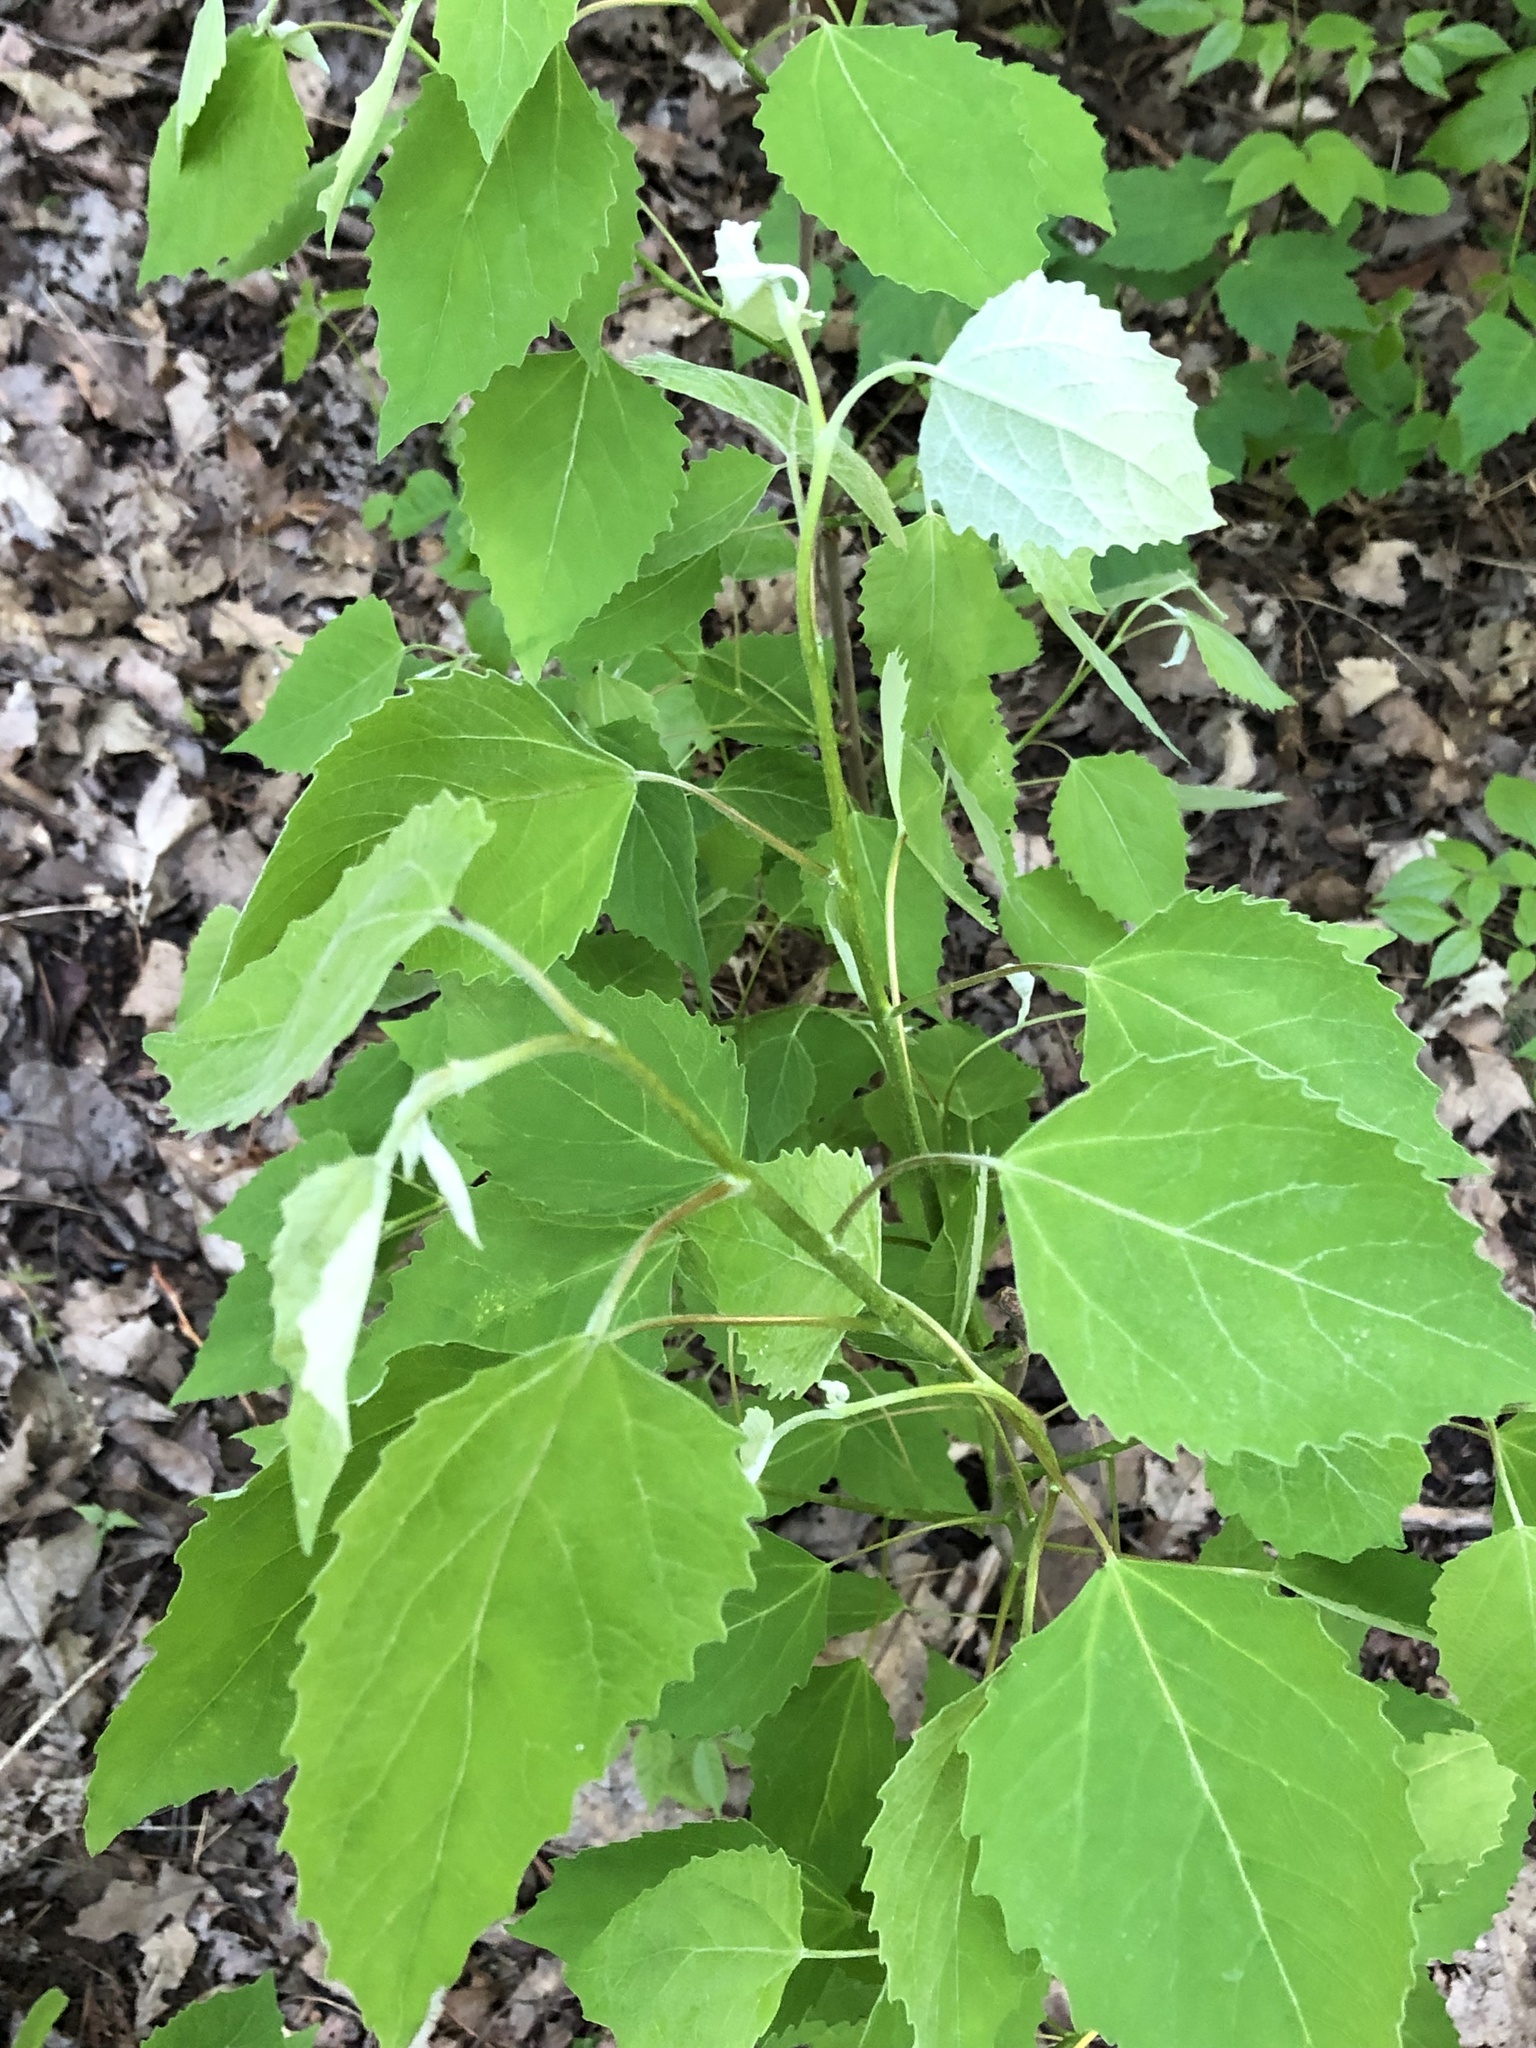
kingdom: Plantae
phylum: Tracheophyta
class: Magnoliopsida
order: Malpighiales
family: Salicaceae
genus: Populus
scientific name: Populus grandidentata
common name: Bigtooth aspen
